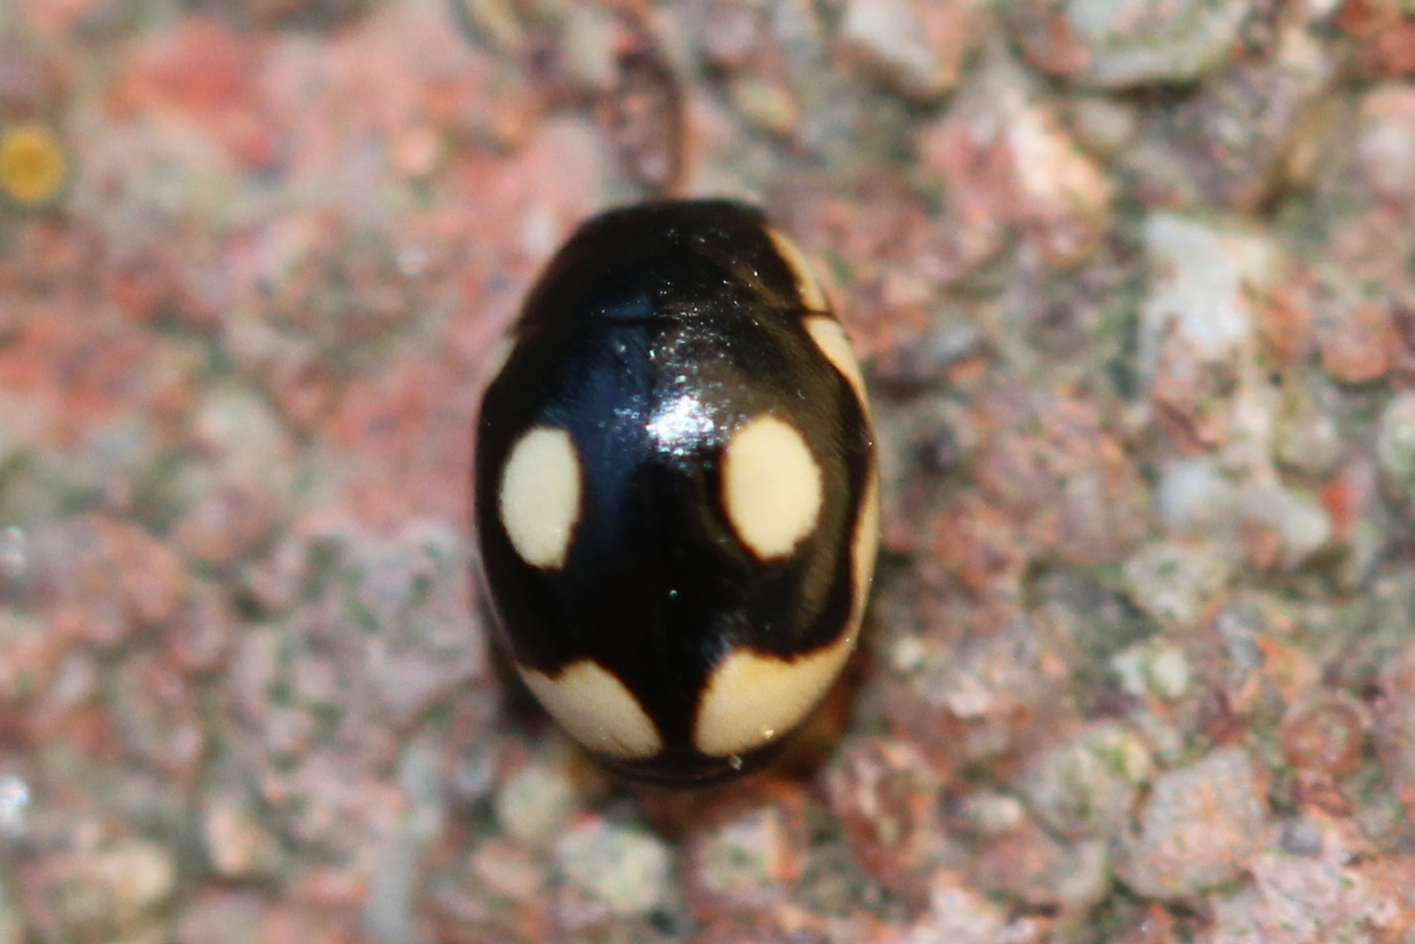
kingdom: Animalia
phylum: Arthropoda
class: Insecta
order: Coleoptera
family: Coccinellidae
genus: Hyperaspis
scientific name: Hyperaspis undulata
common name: Undulate sigil lady beetle
